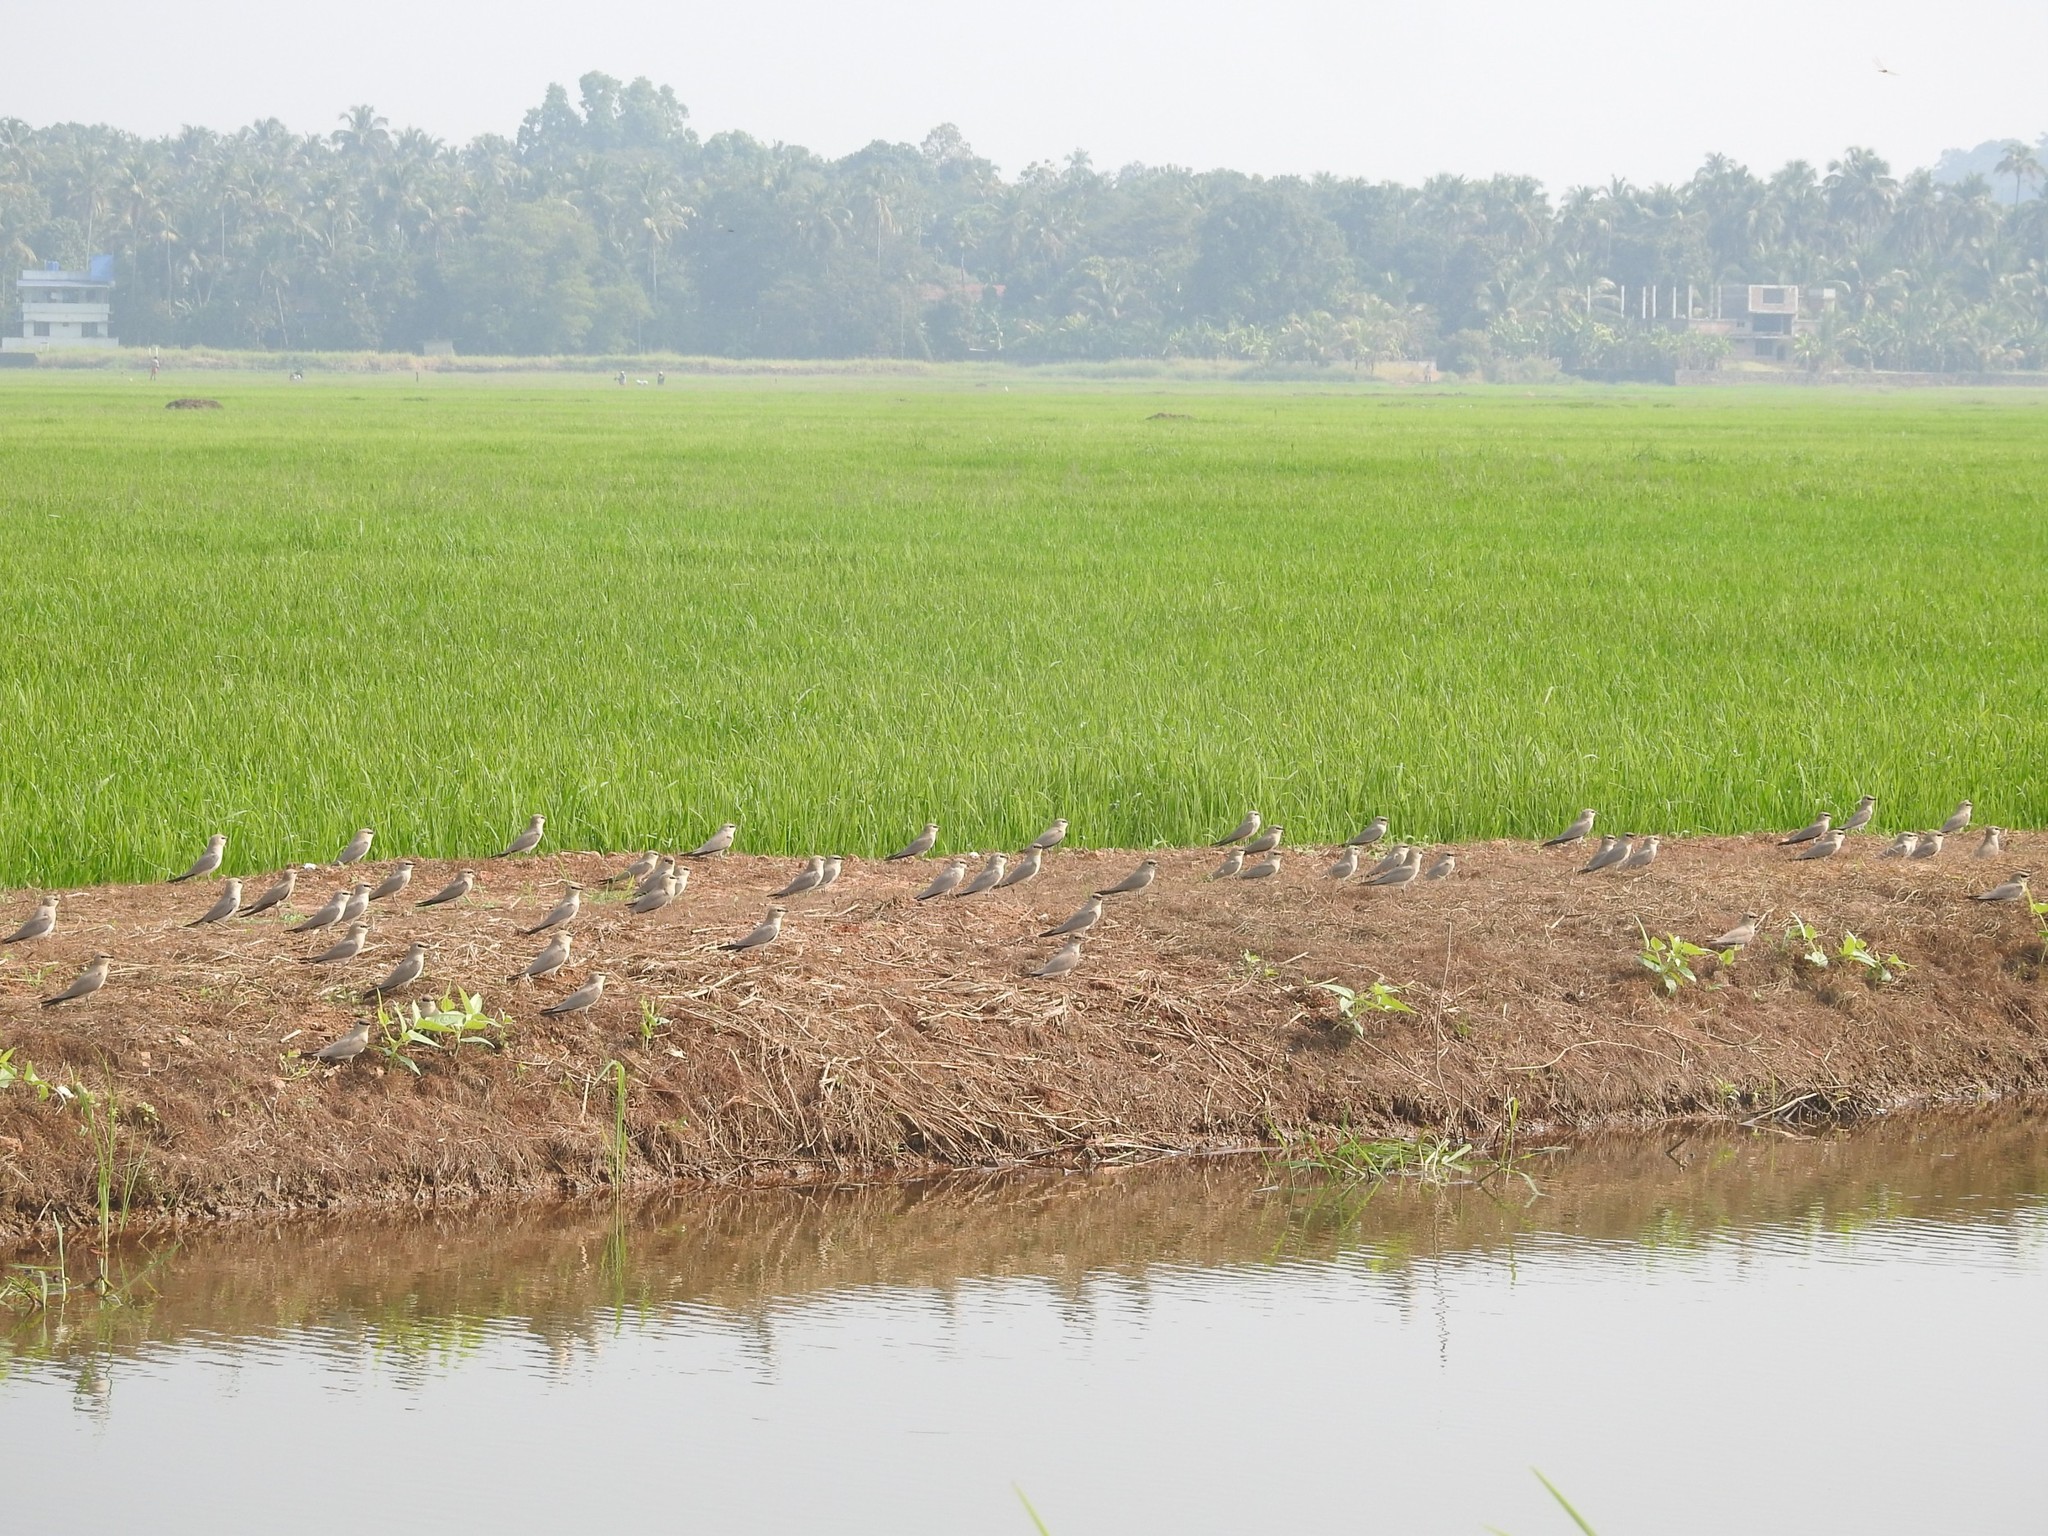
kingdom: Animalia
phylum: Chordata
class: Aves
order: Charadriiformes
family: Glareolidae
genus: Glareola
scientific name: Glareola lactea
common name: Small pratincole
